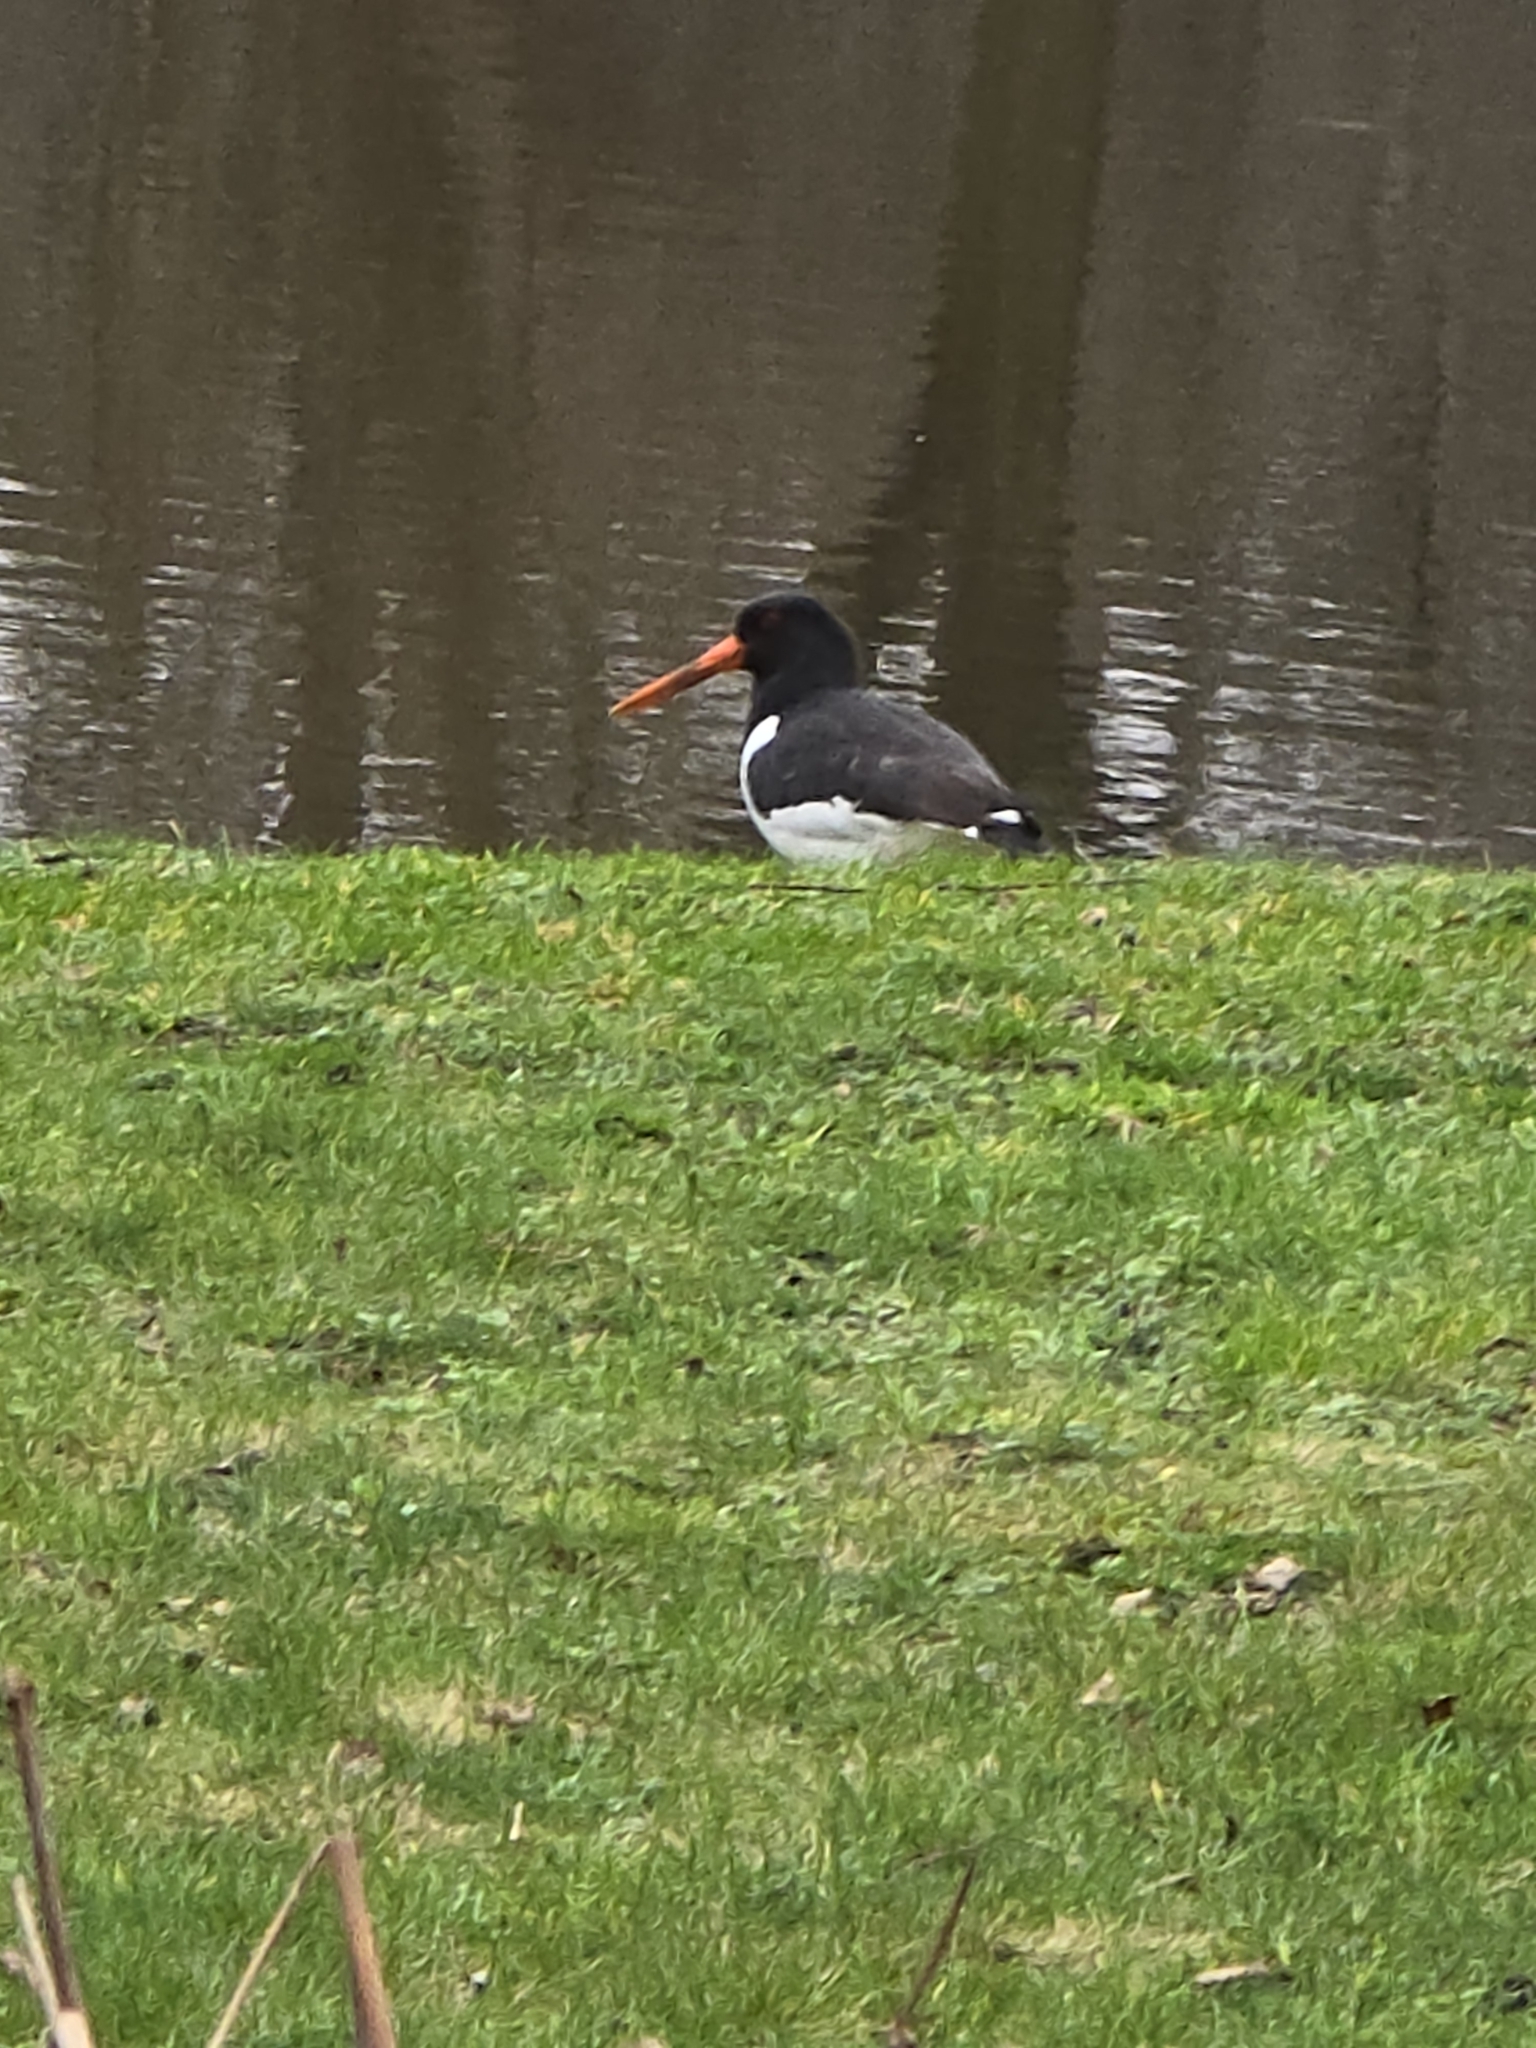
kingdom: Animalia
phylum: Chordata
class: Aves
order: Charadriiformes
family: Haematopodidae
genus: Haematopus
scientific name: Haematopus ostralegus
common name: Eurasian oystercatcher
